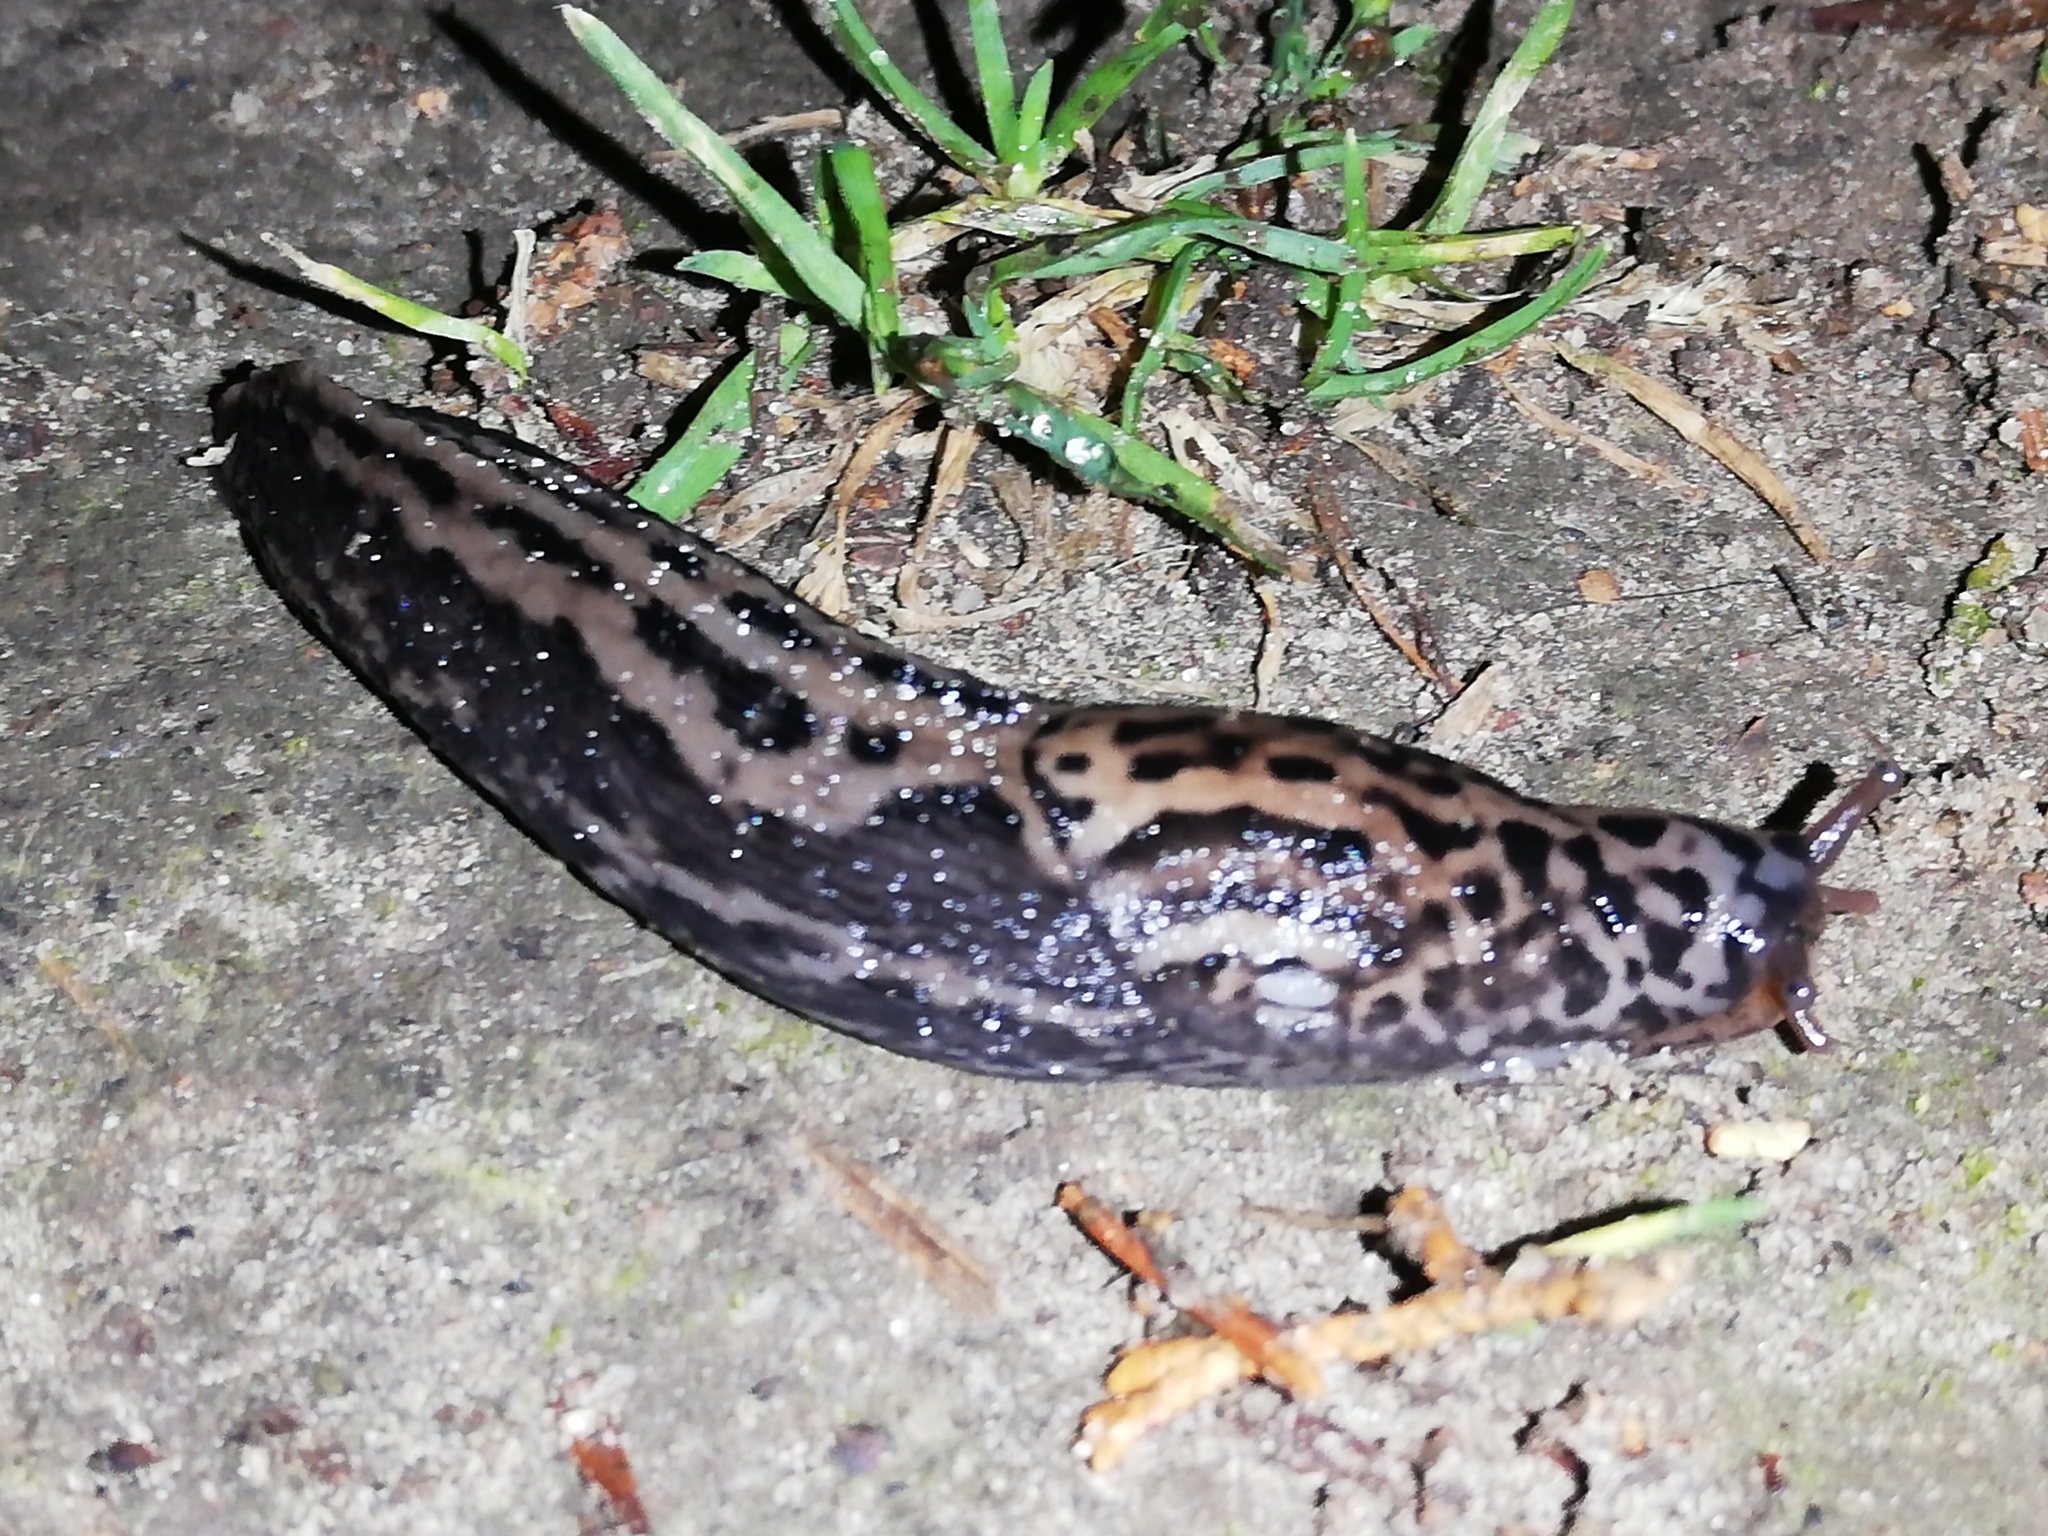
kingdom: Animalia
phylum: Mollusca
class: Gastropoda
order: Stylommatophora
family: Limacidae
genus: Limax
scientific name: Limax maximus
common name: Great grey slug
